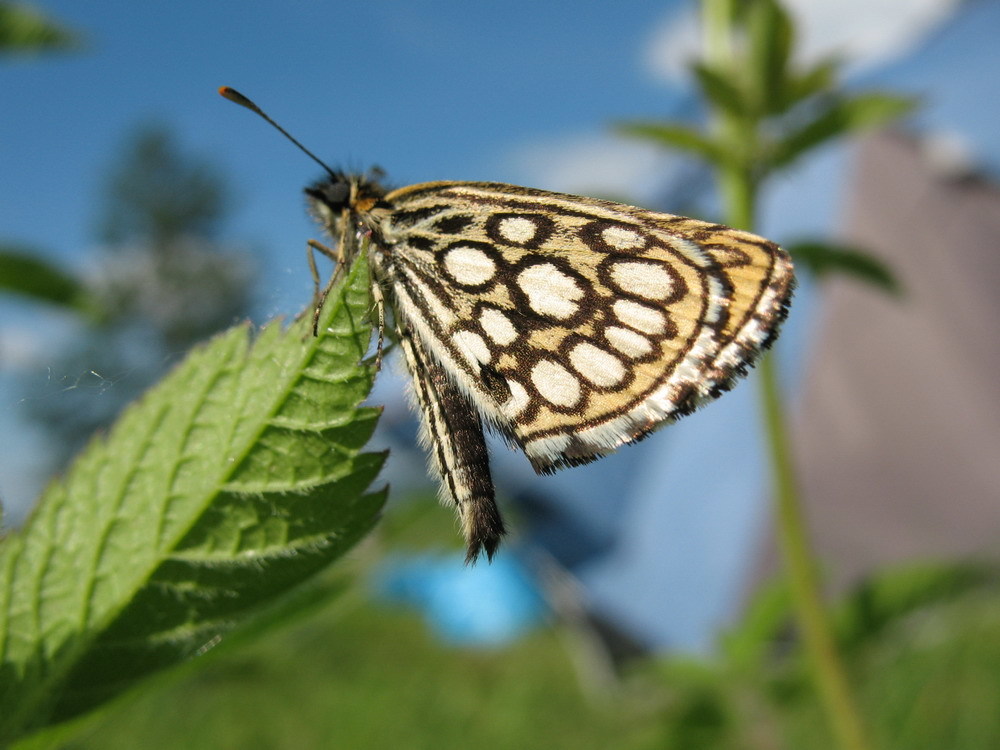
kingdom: Animalia
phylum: Arthropoda
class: Insecta
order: Lepidoptera
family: Hesperiidae
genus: Heteropterus
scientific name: Heteropterus morpheus
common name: Large chequered skipper
